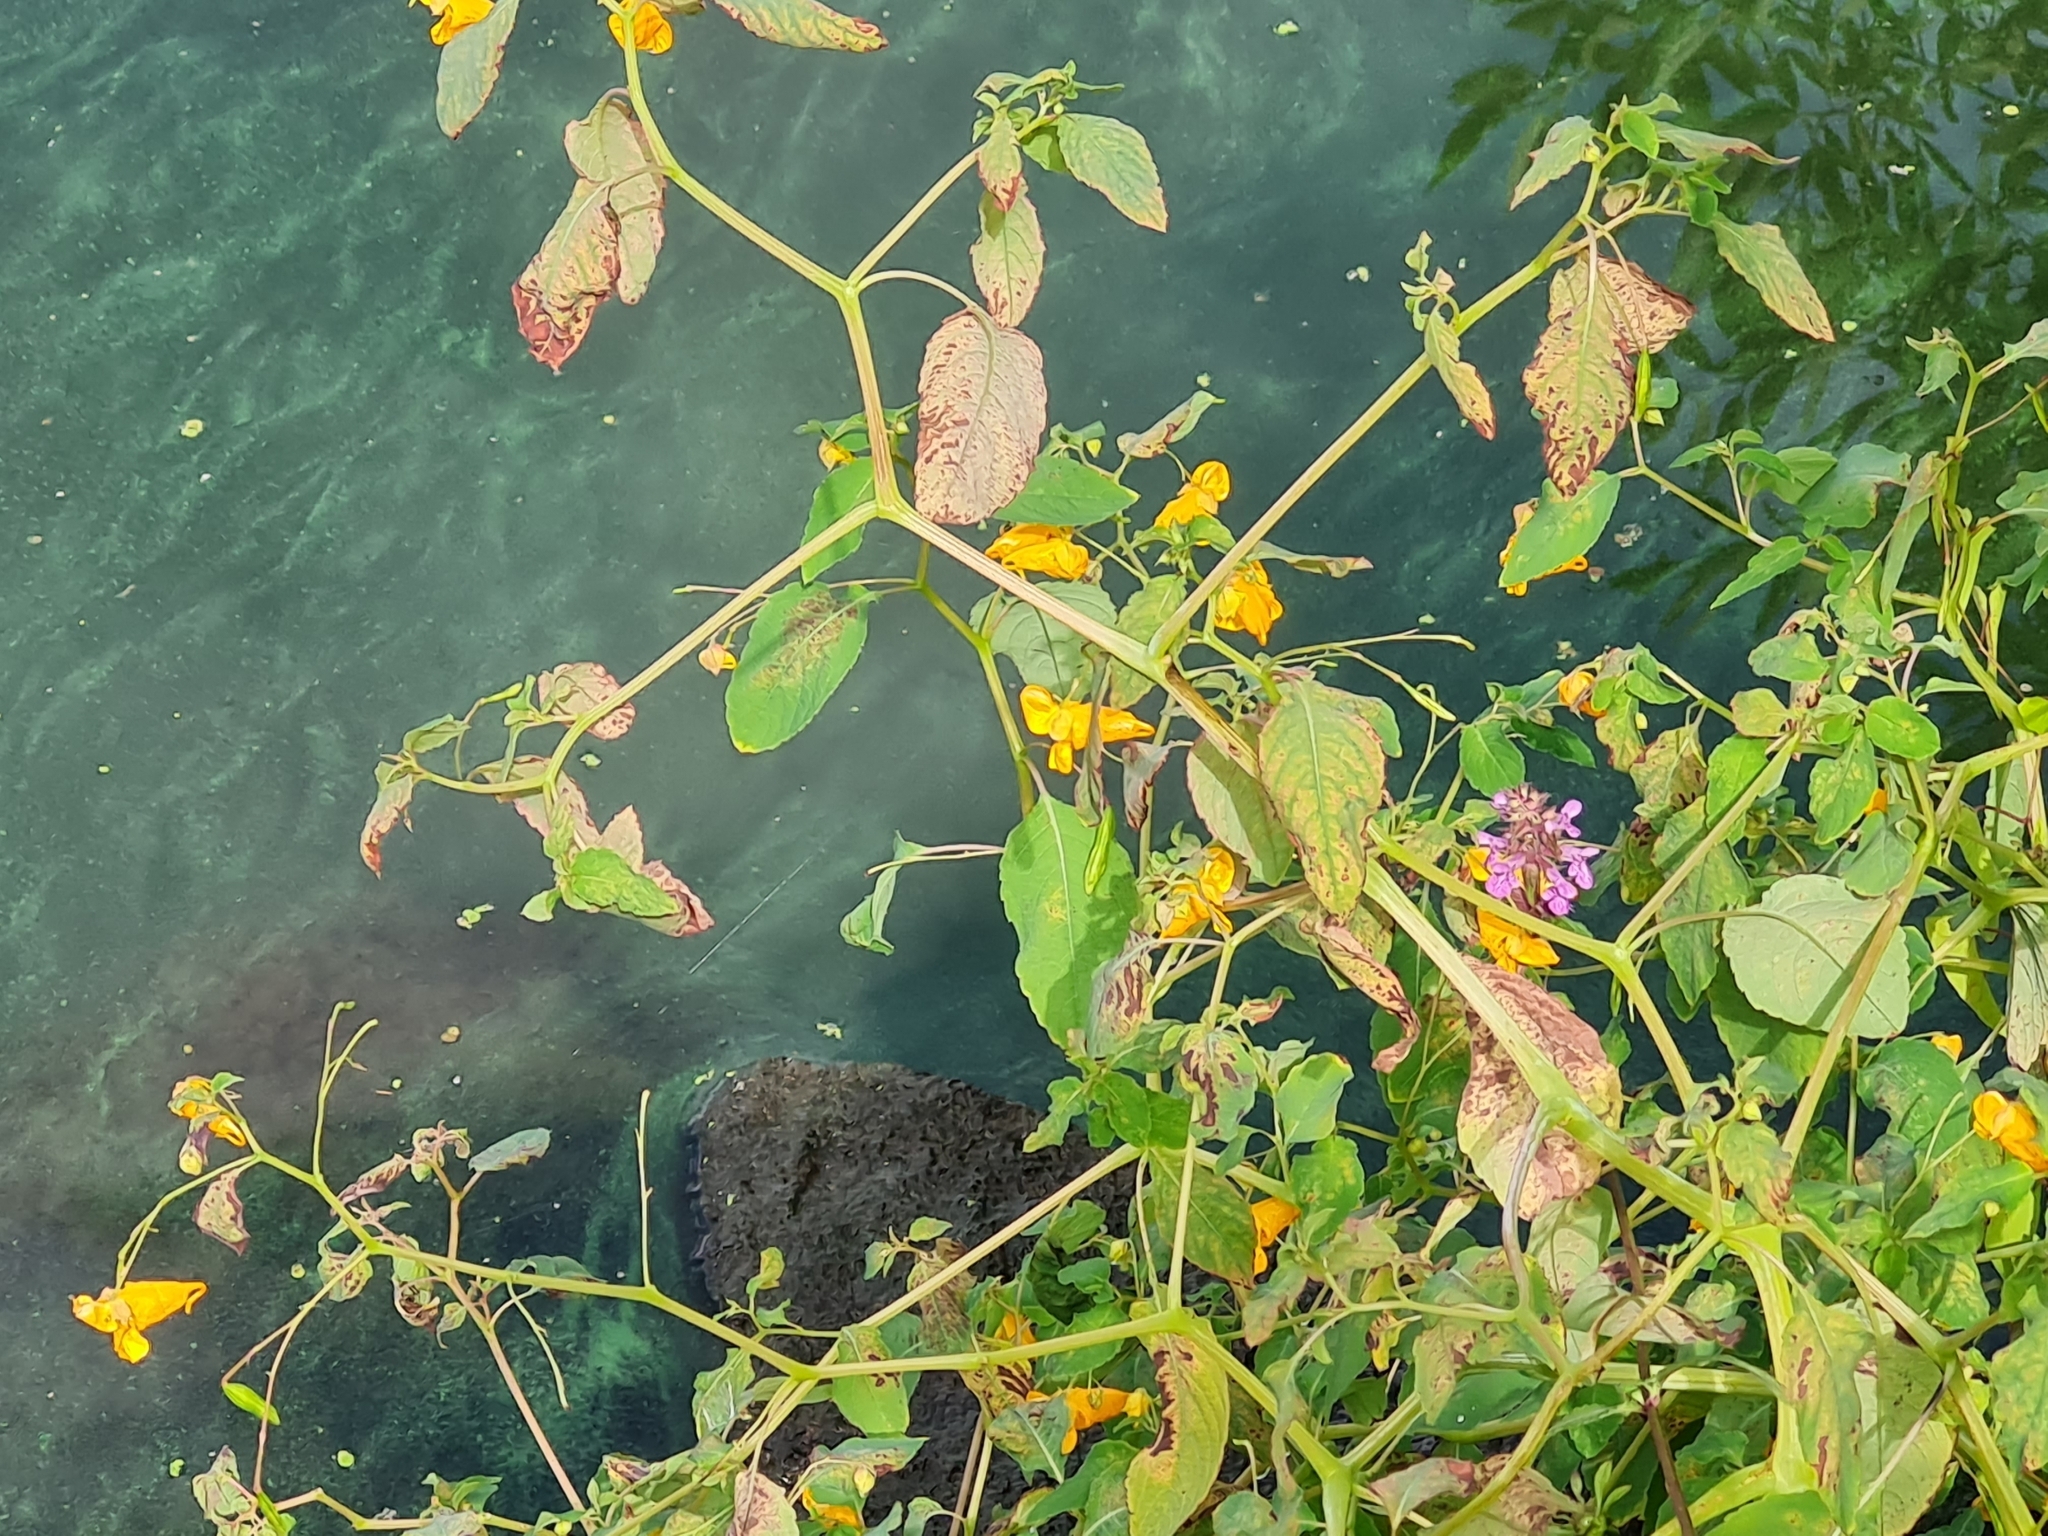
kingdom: Plantae
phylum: Tracheophyta
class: Magnoliopsida
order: Ericales
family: Balsaminaceae
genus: Impatiens
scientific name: Impatiens capensis
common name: Orange balsam
